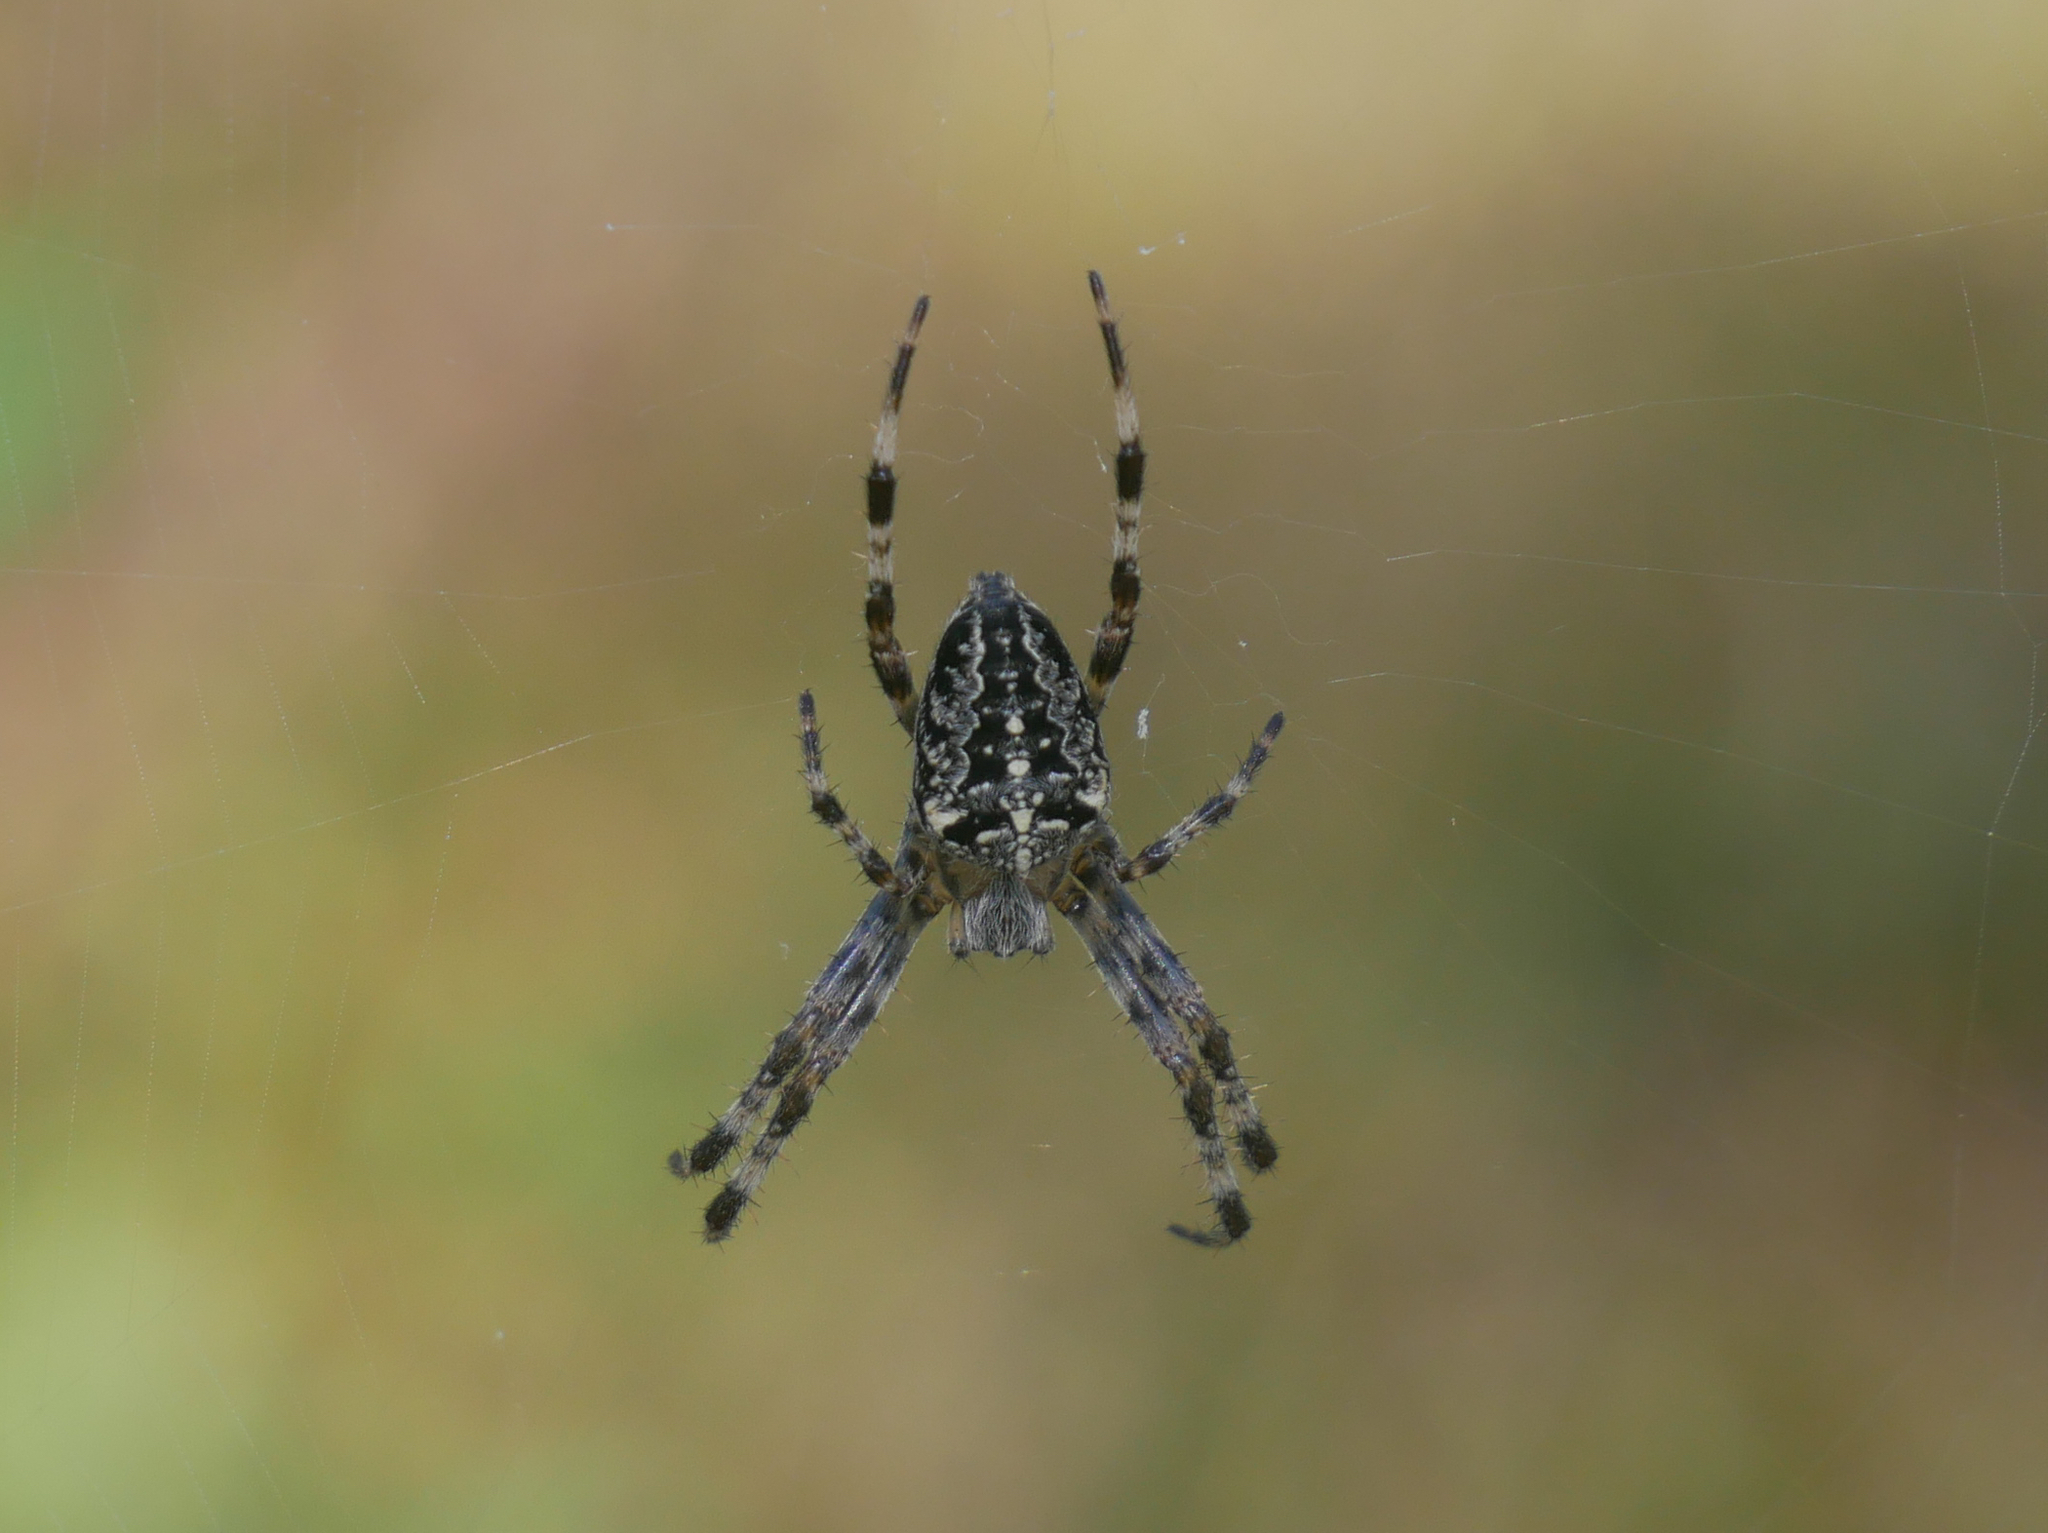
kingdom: Animalia
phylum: Arthropoda
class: Arachnida
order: Araneae
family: Araneidae
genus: Araneus
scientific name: Araneus diadematus
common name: Cross orbweaver
